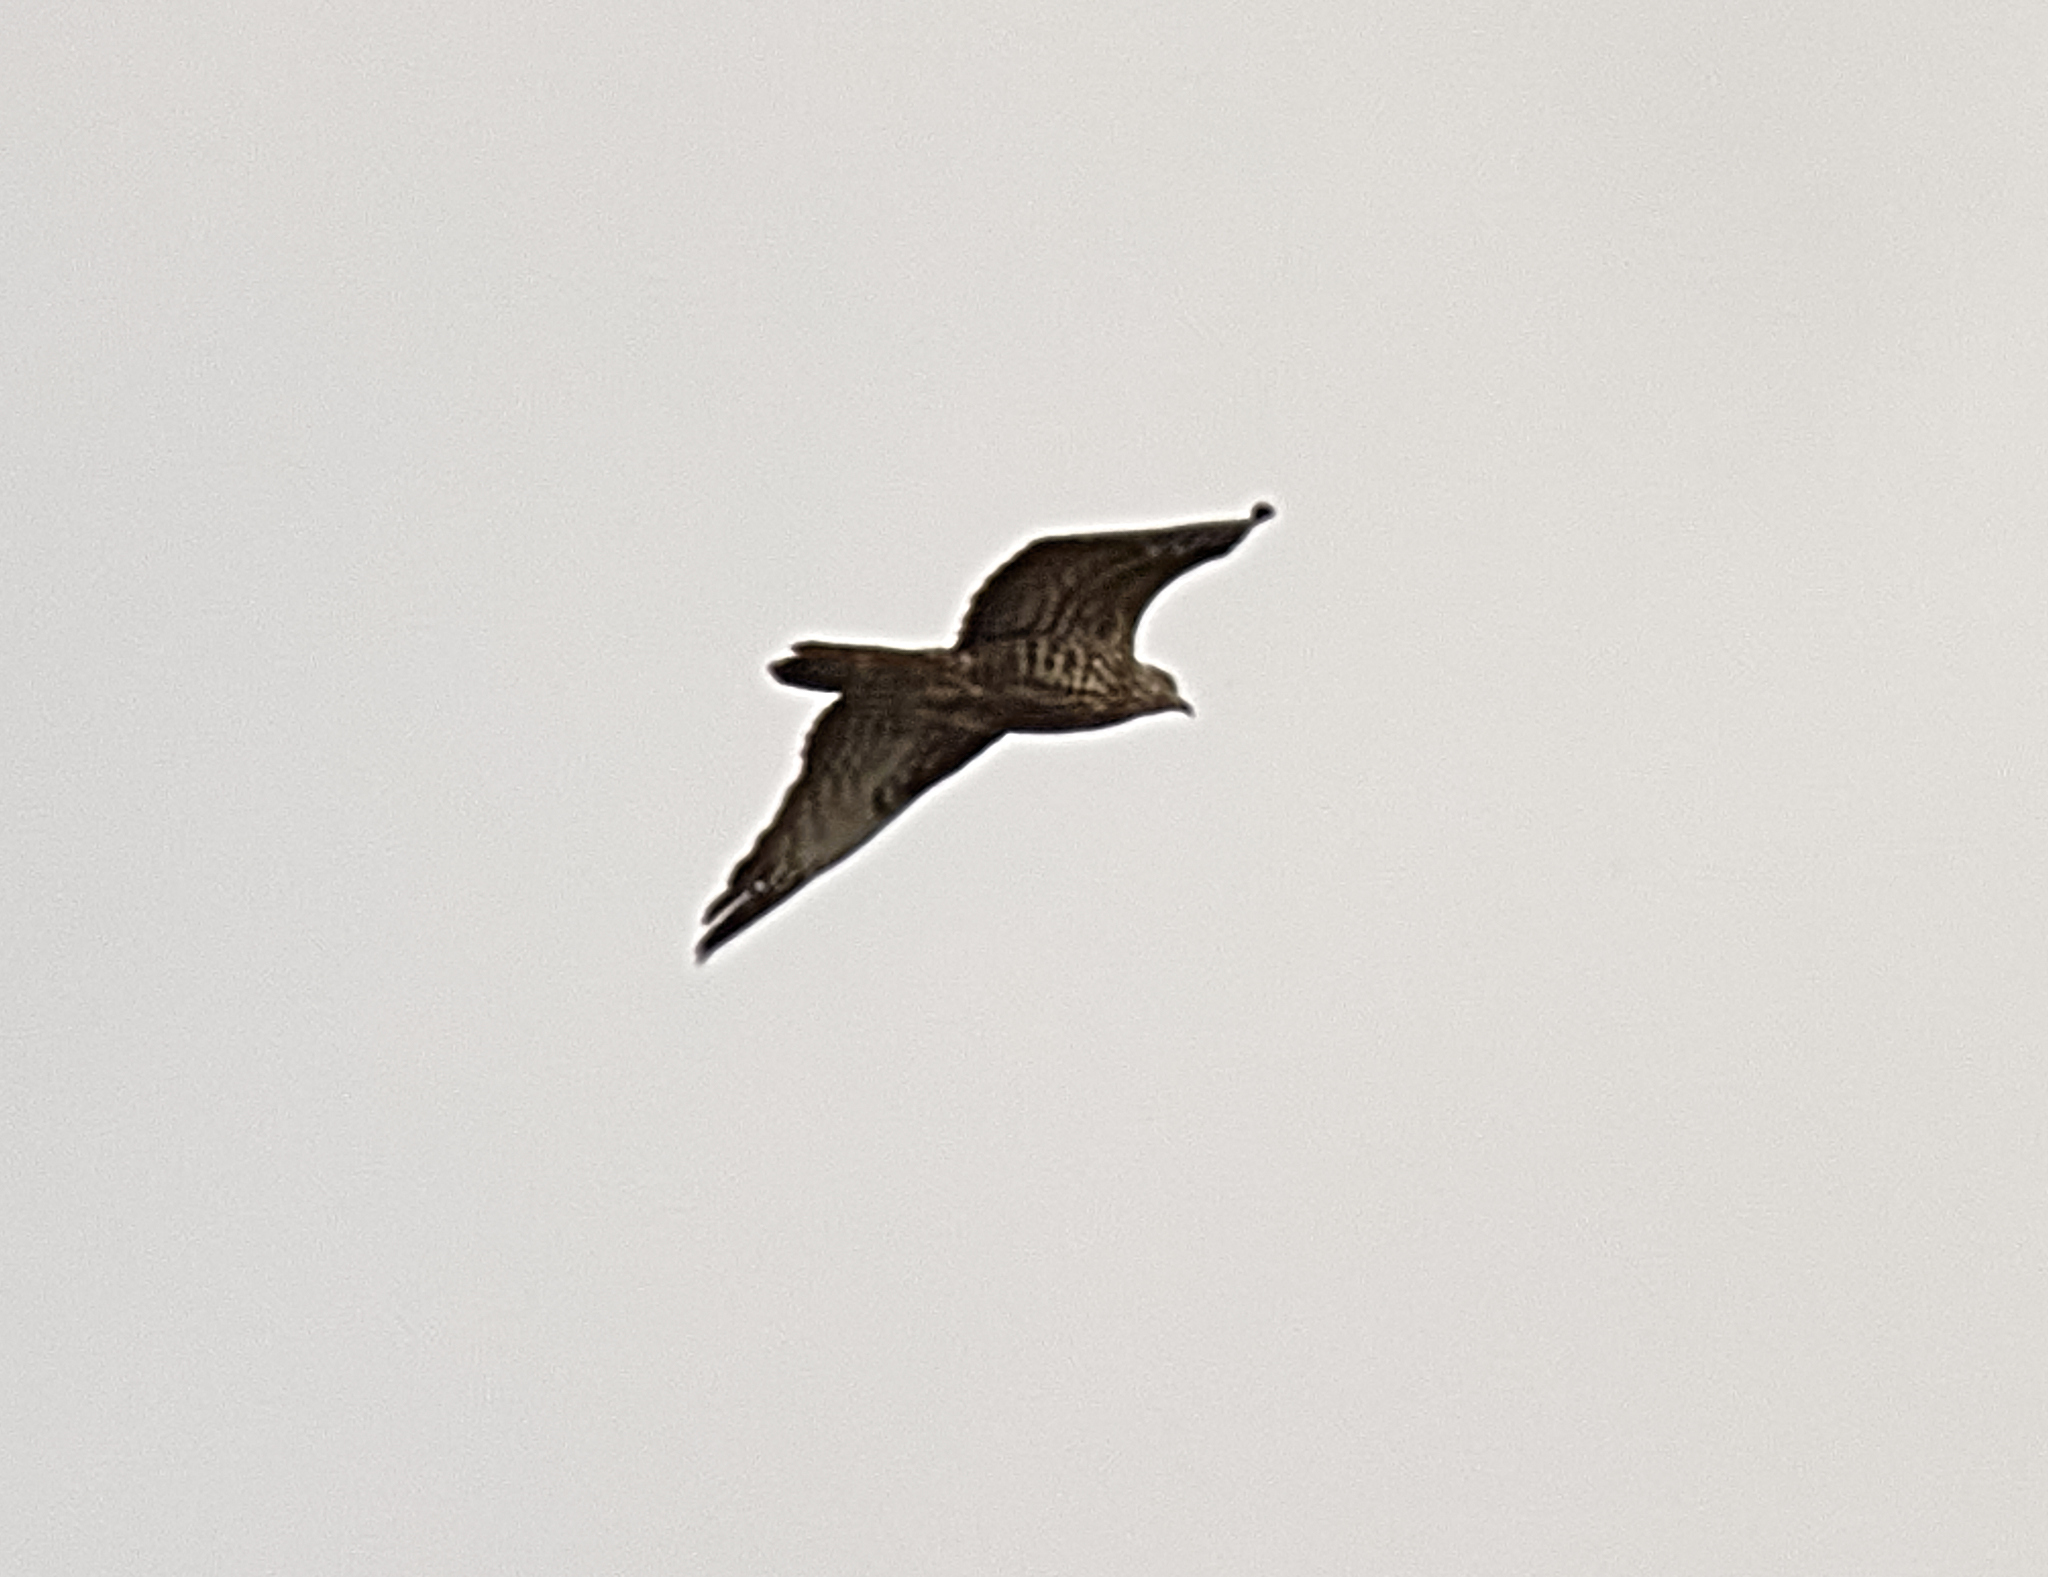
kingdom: Animalia
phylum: Chordata
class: Aves
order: Accipitriformes
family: Accipitridae
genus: Pernis
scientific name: Pernis apivorus
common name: European honey buzzard
